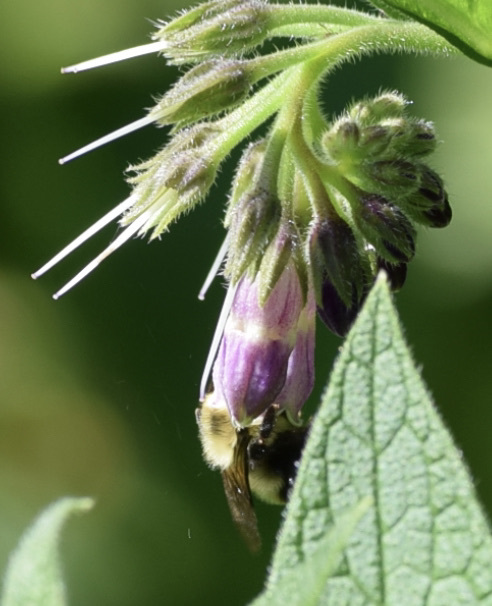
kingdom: Animalia
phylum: Arthropoda
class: Insecta
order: Hymenoptera
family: Apidae
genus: Bombus
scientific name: Bombus bimaculatus
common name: Two-spotted bumble bee
